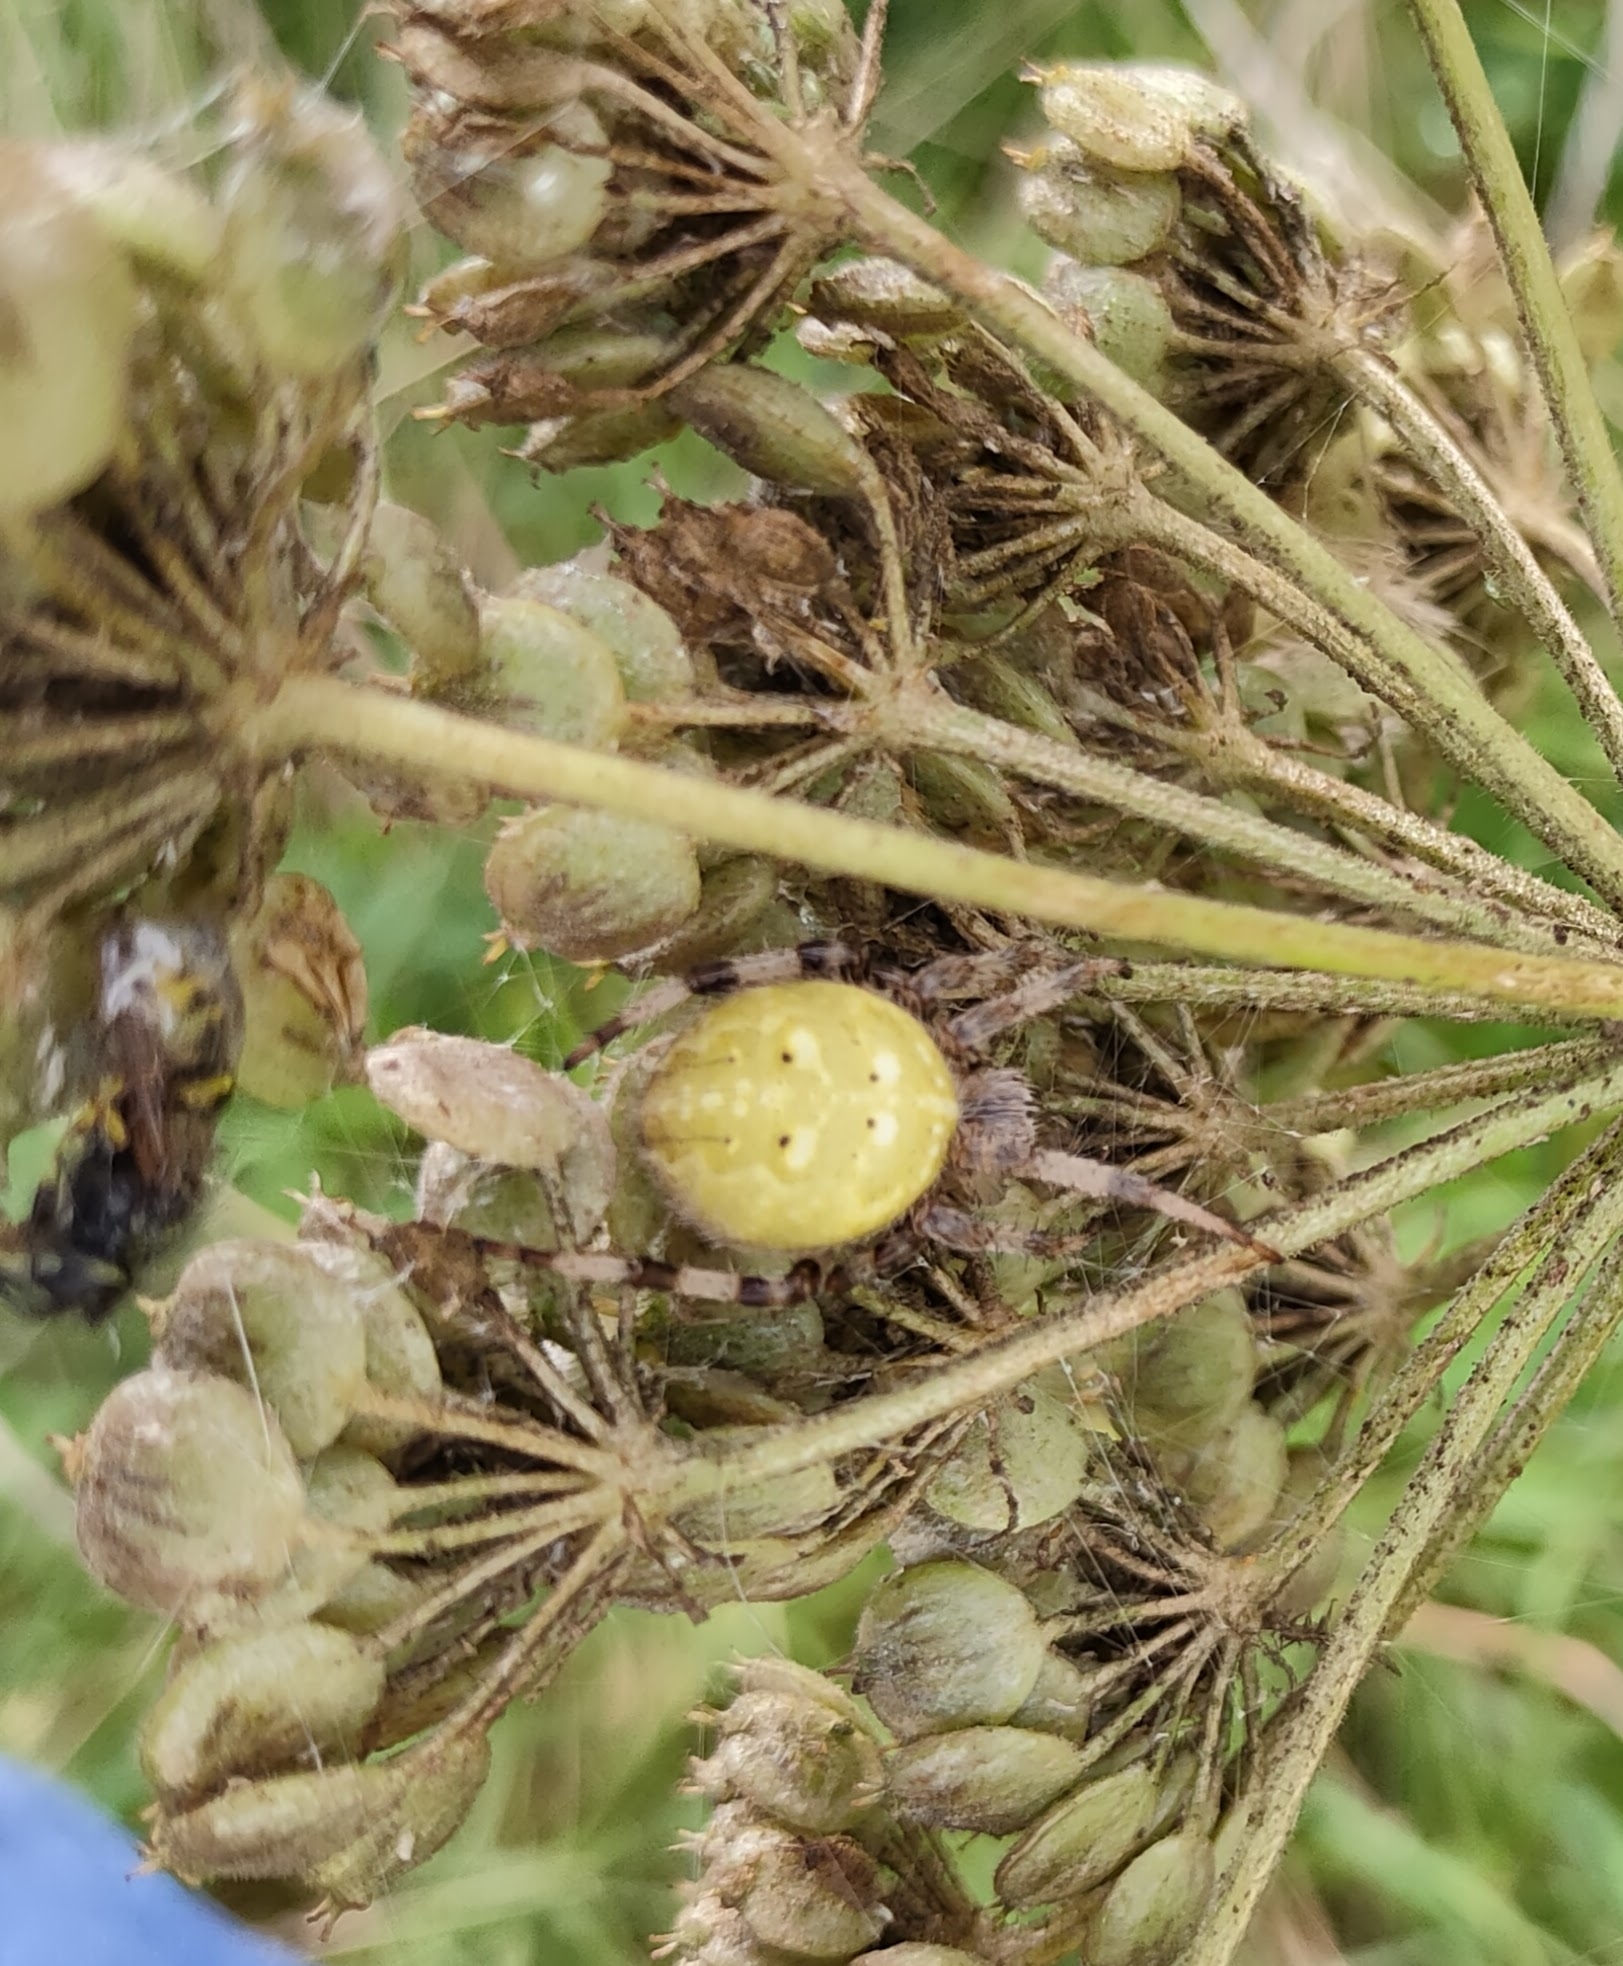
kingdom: Animalia
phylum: Arthropoda
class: Arachnida
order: Araneae
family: Araneidae
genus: Araneus
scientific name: Araneus quadratus
